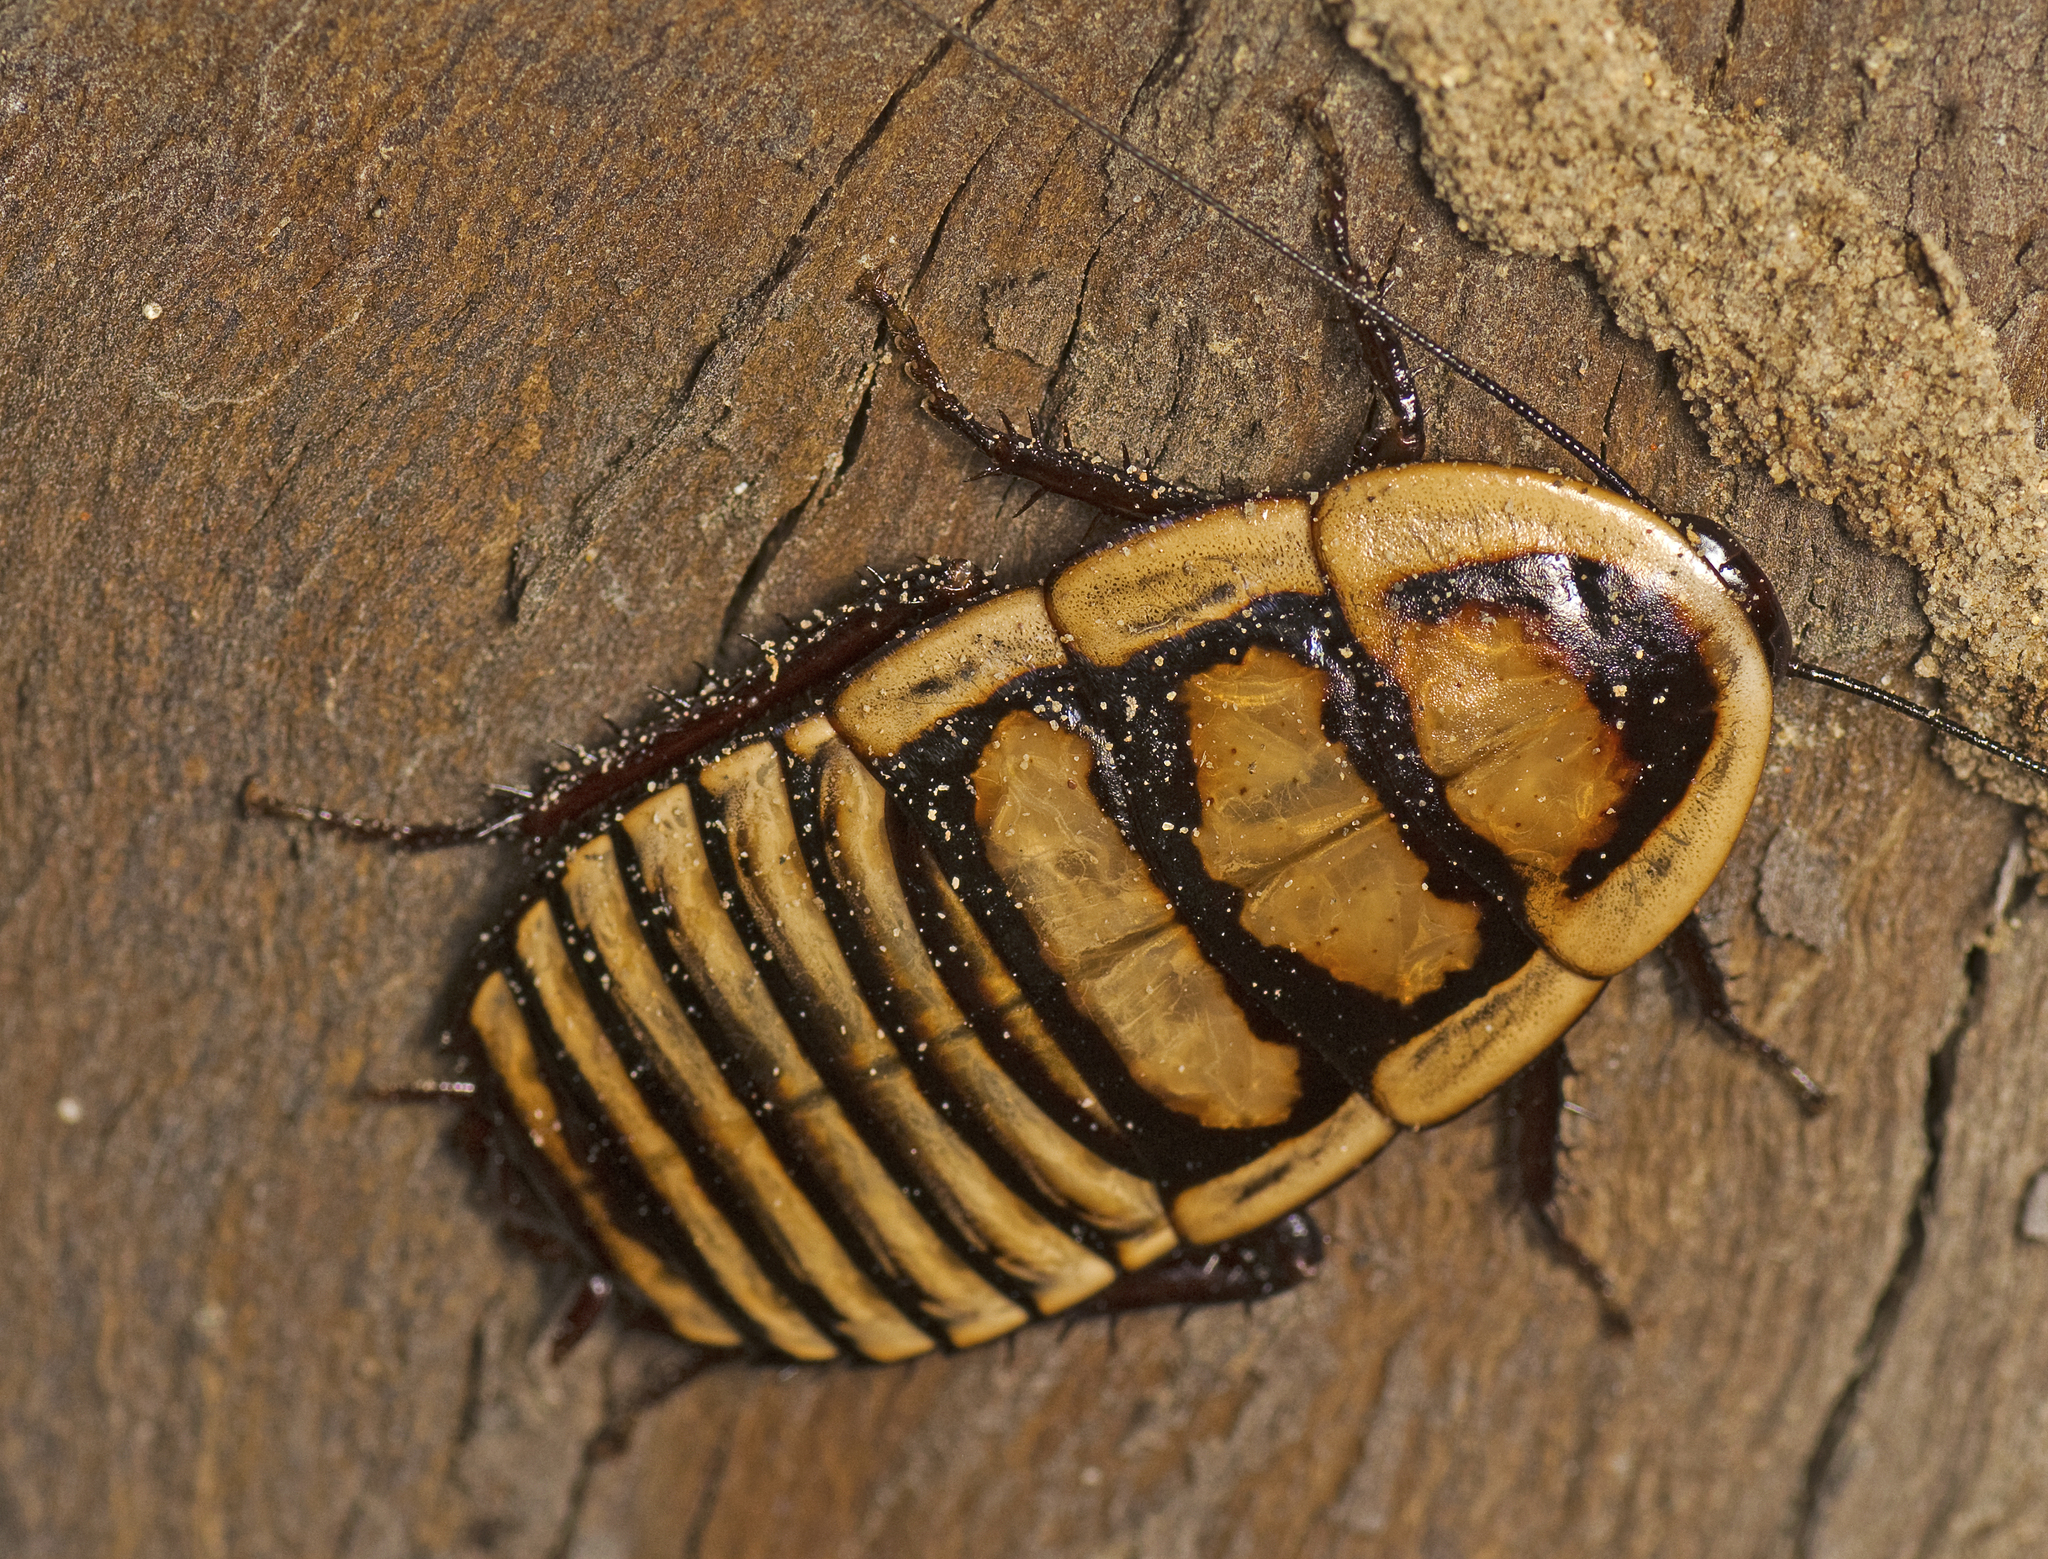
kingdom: Animalia
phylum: Arthropoda
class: Insecta
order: Blattodea
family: Blattidae
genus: Leptozosteria
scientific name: Leptozosteria prima
